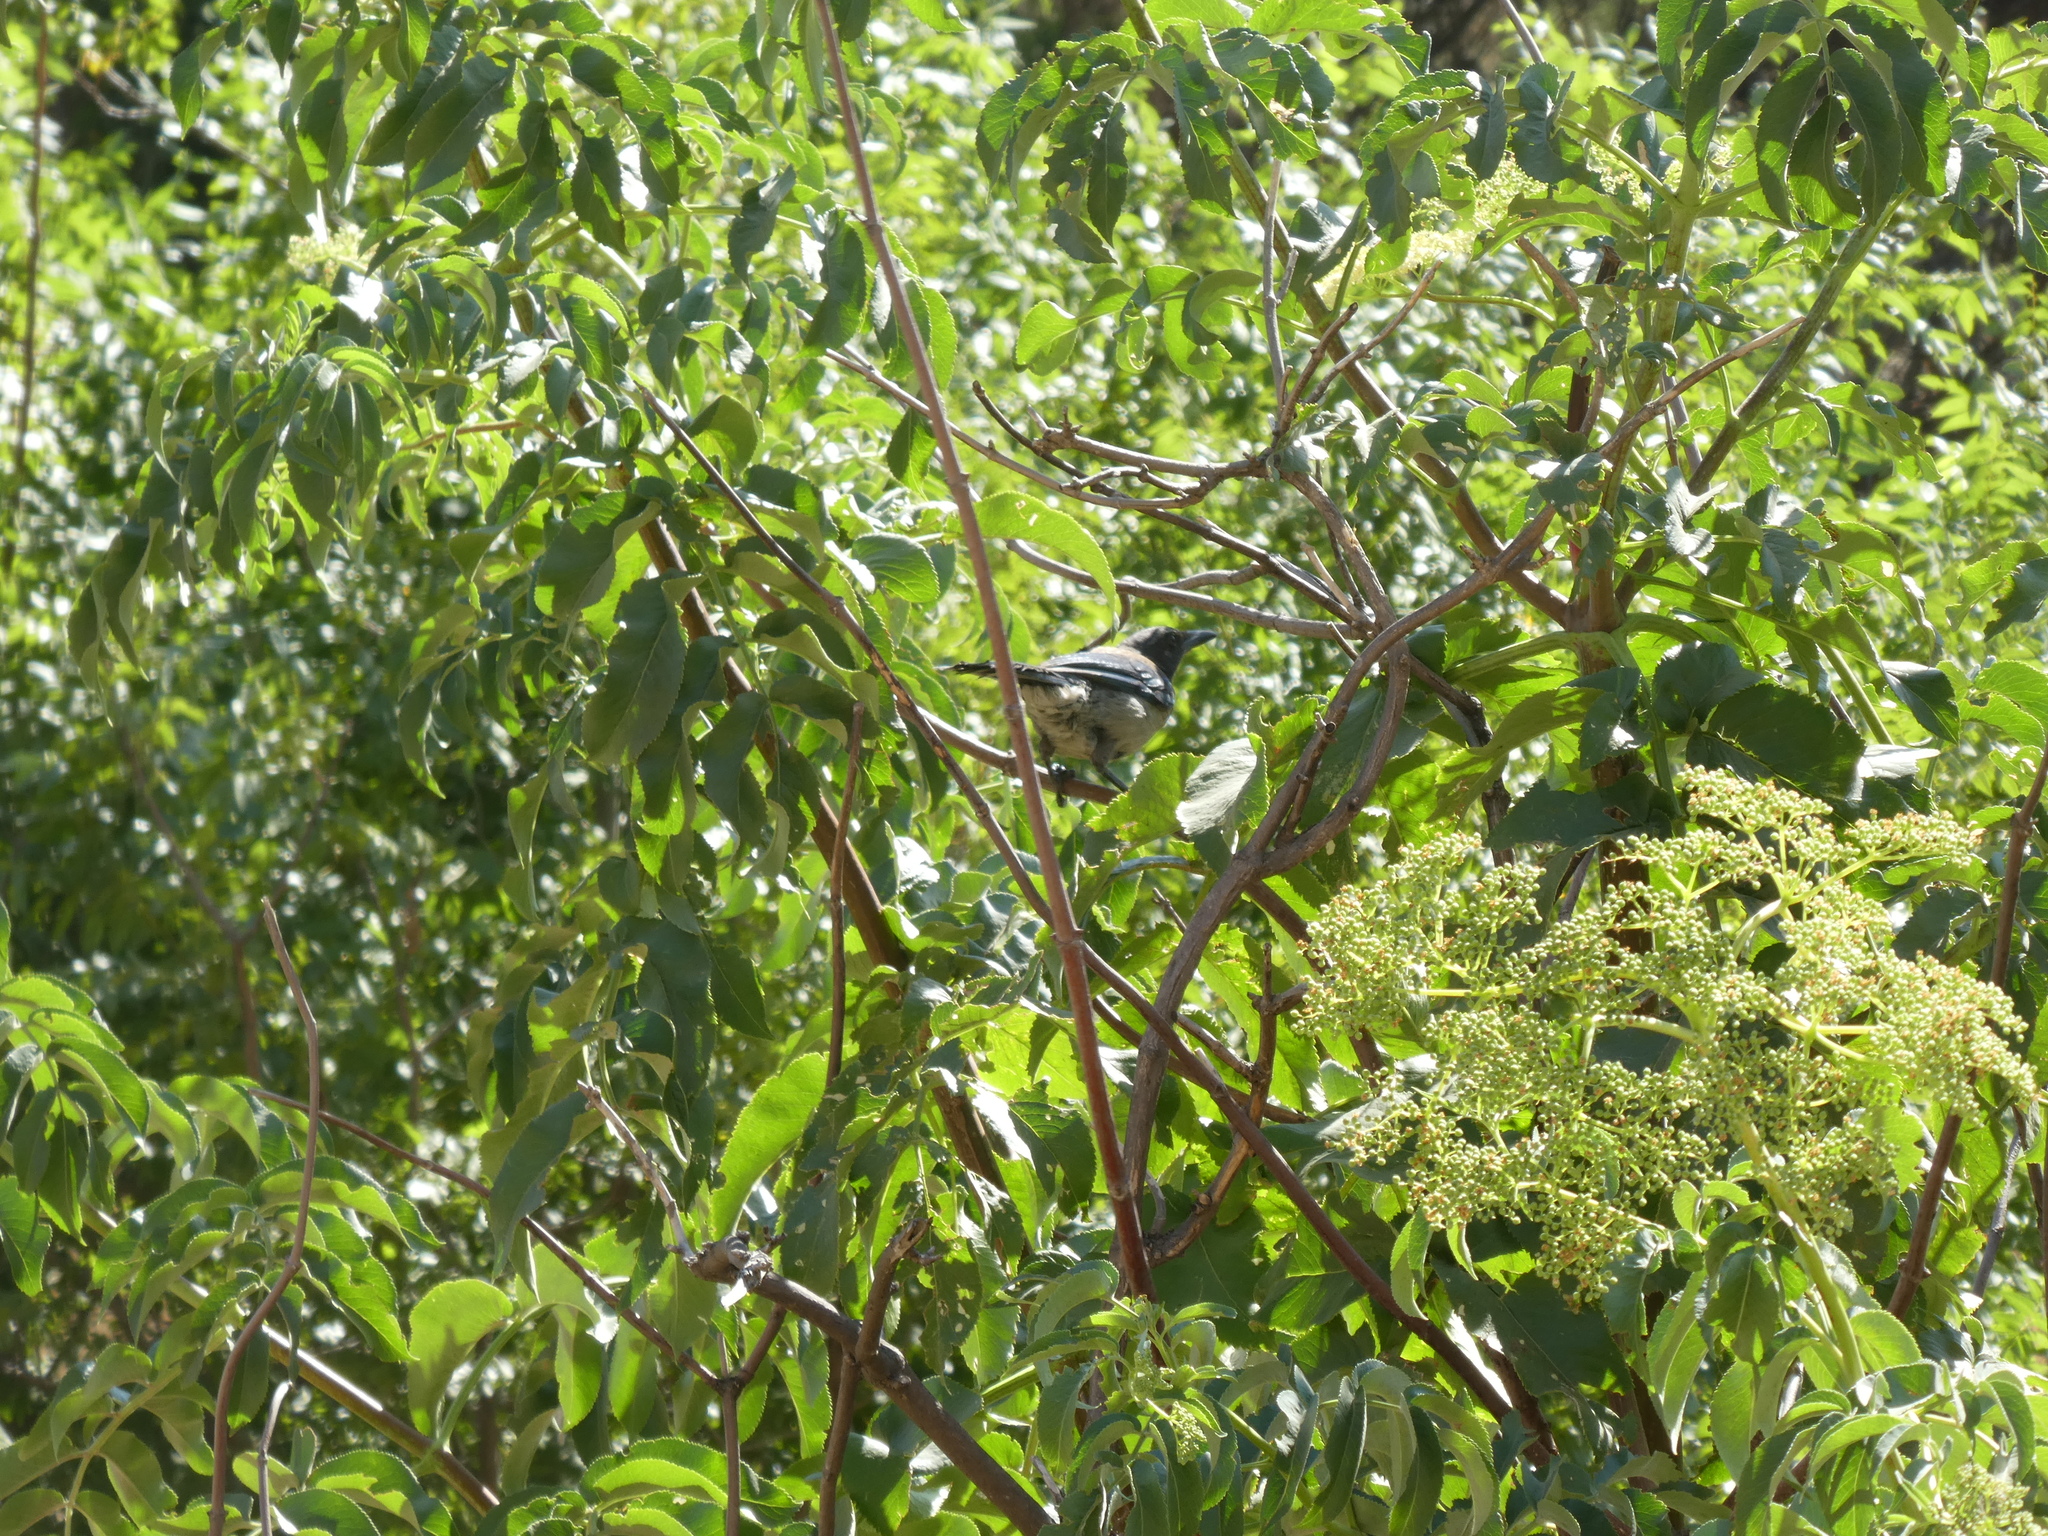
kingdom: Animalia
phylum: Chordata
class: Aves
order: Passeriformes
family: Corvidae
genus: Aphelocoma
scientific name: Aphelocoma californica
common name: California scrub-jay
